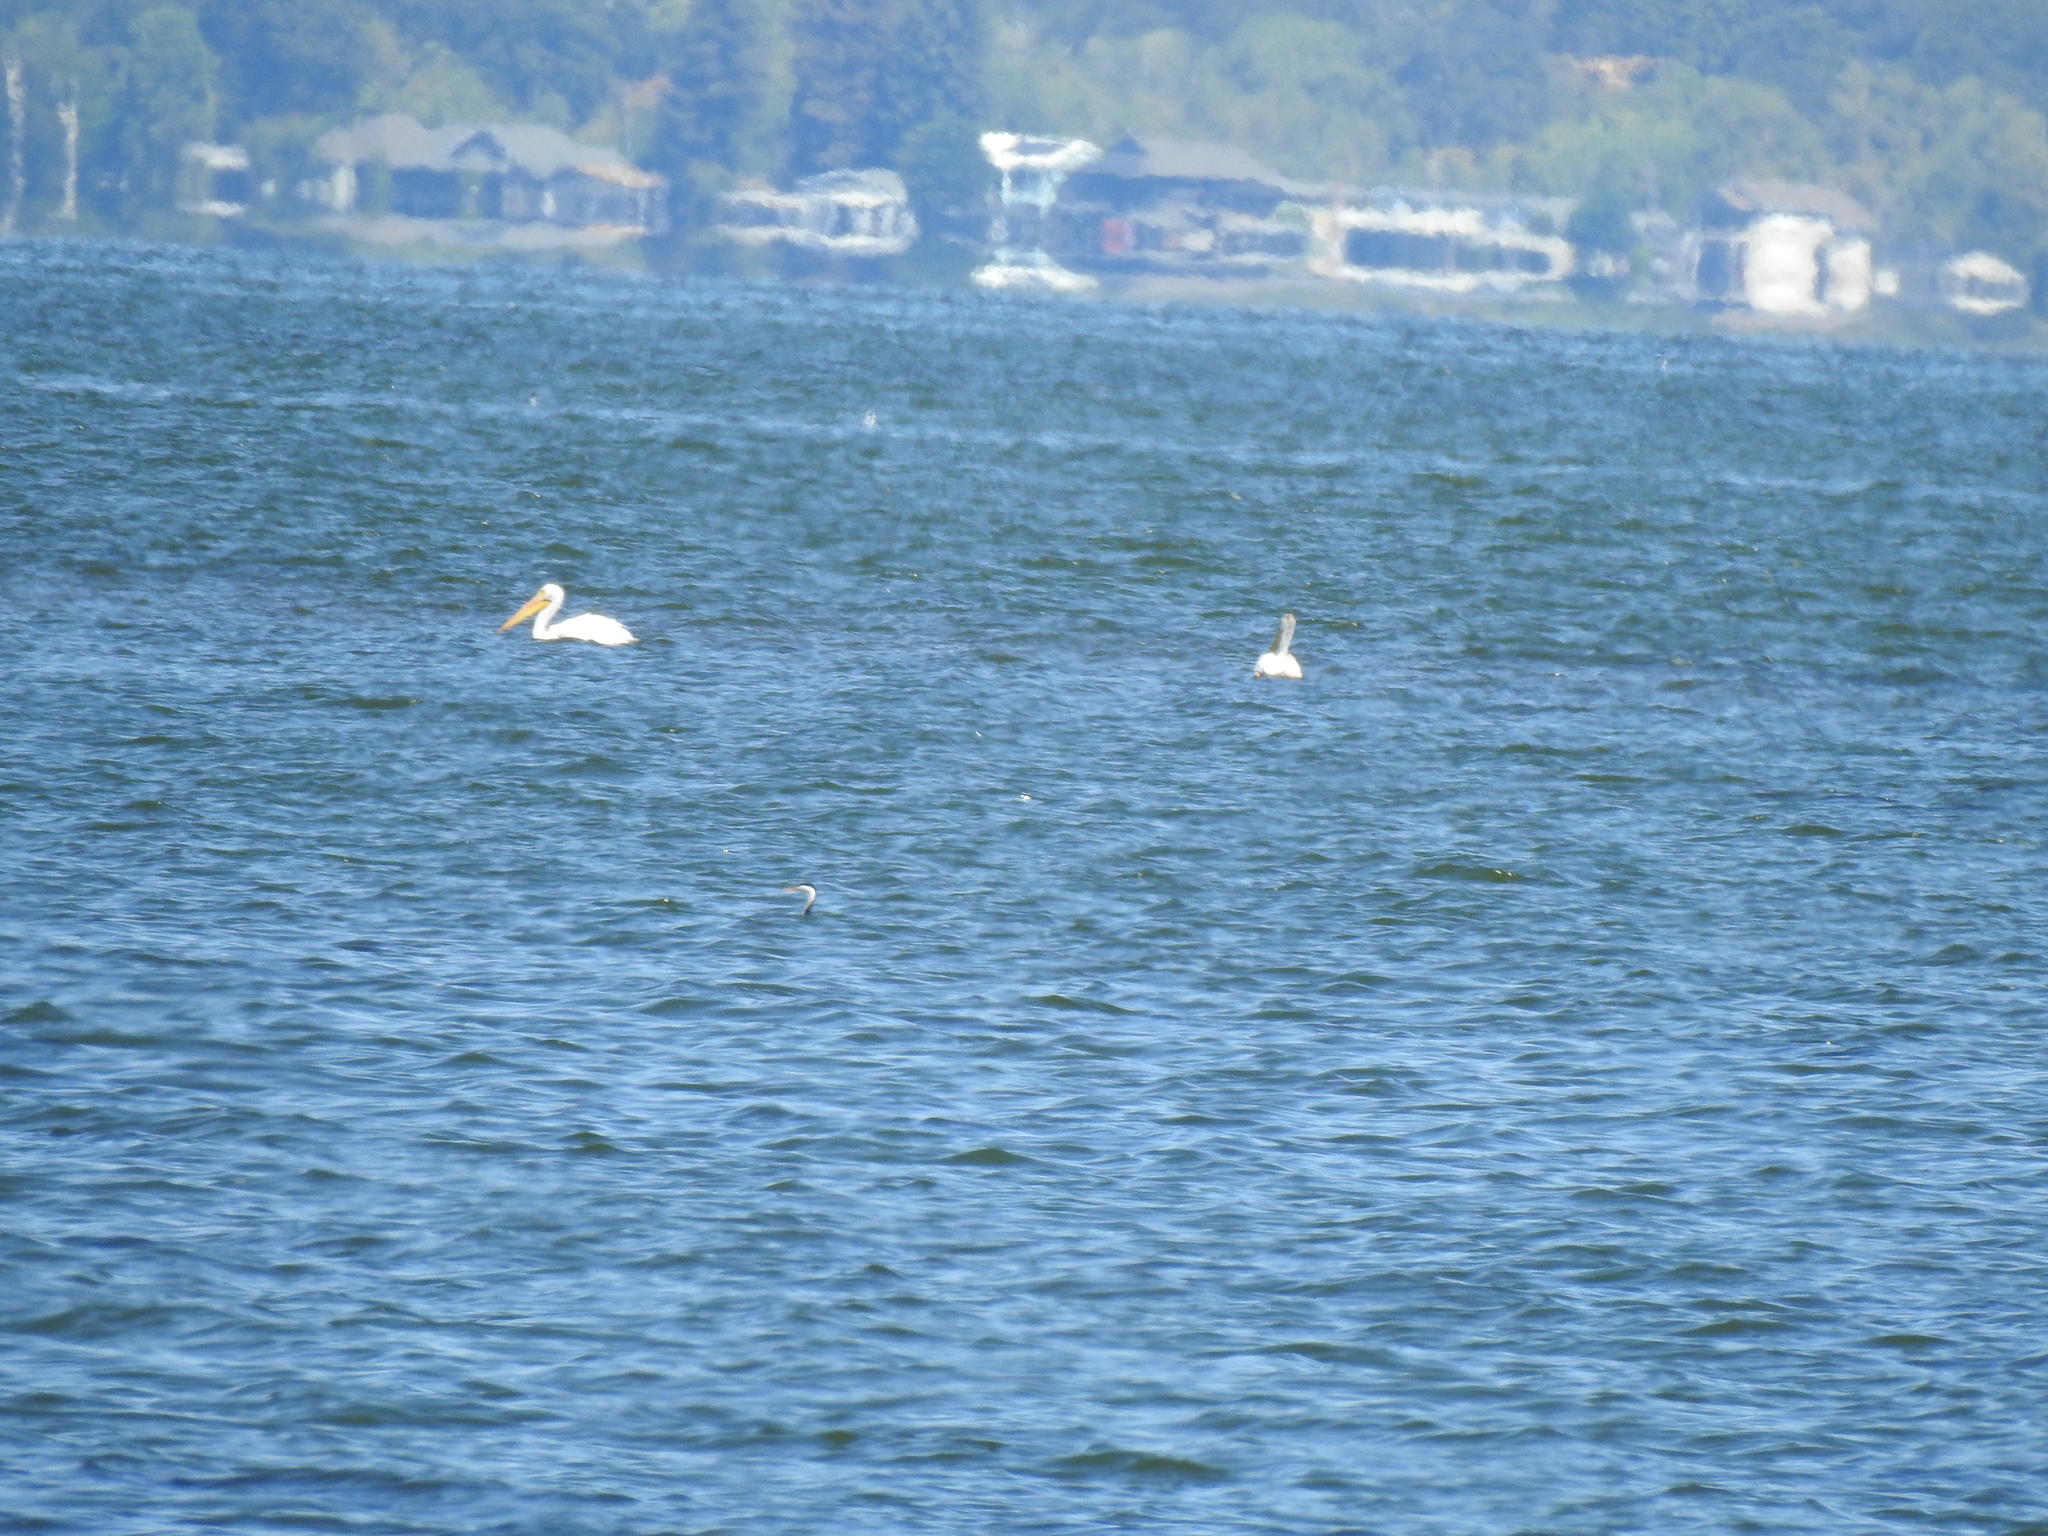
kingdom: Animalia
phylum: Chordata
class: Aves
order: Pelecaniformes
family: Pelecanidae
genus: Pelecanus
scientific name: Pelecanus erythrorhynchos
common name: American white pelican
